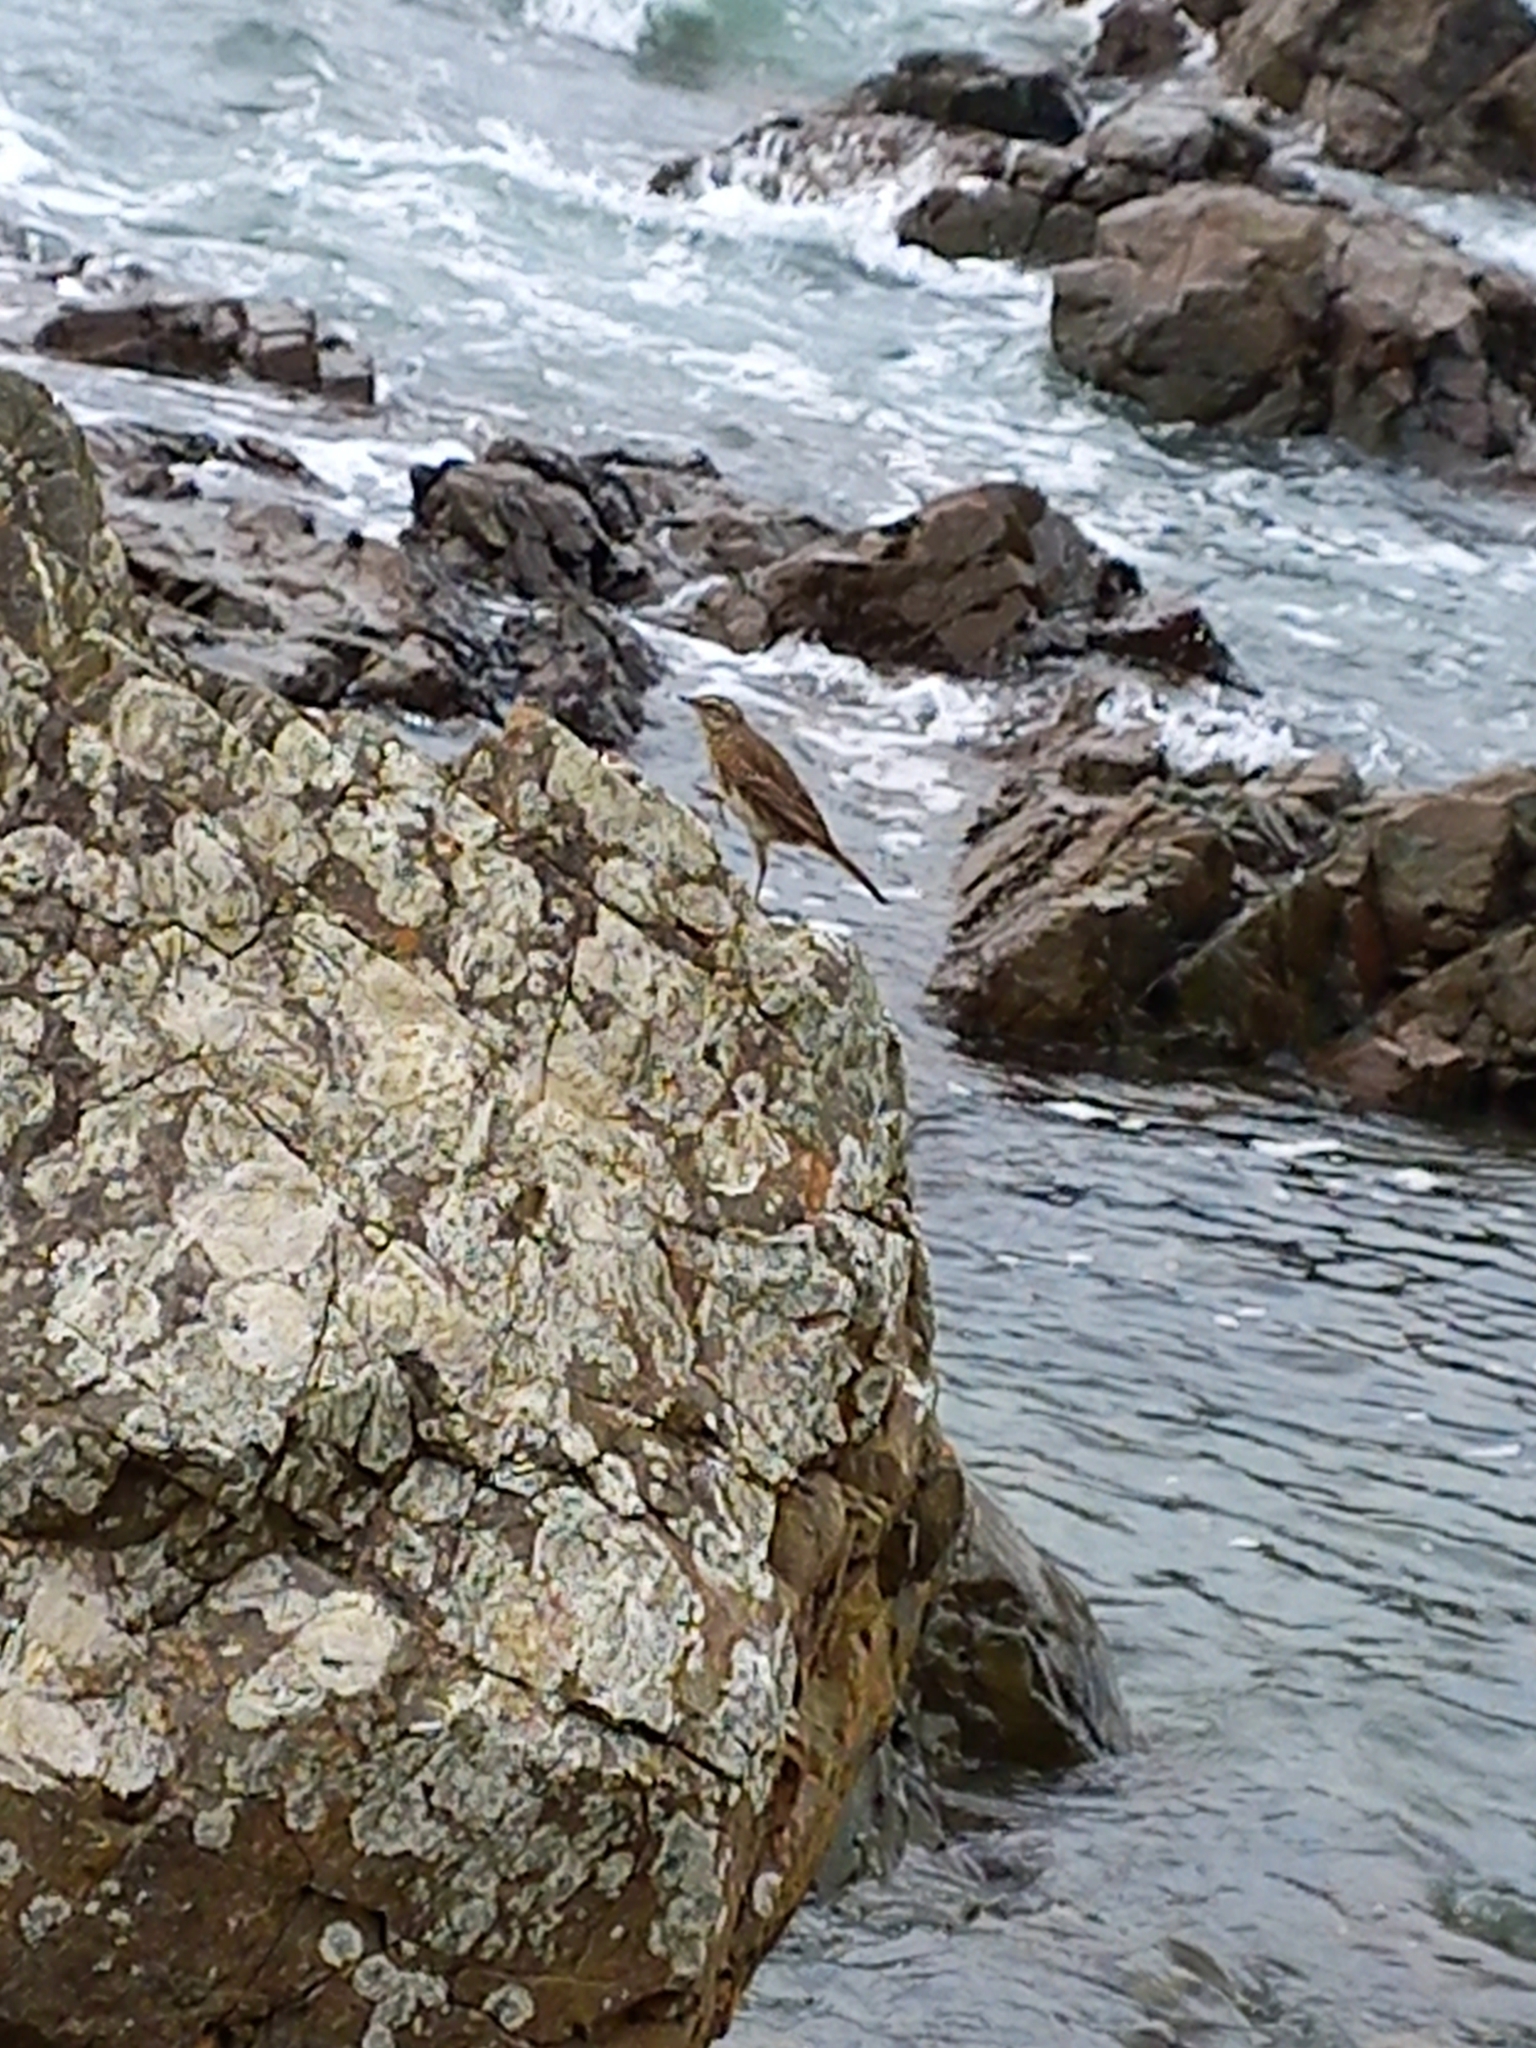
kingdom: Animalia
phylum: Chordata
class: Aves
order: Passeriformes
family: Motacillidae
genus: Anthus
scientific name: Anthus novaeseelandiae
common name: New zealand pipit
